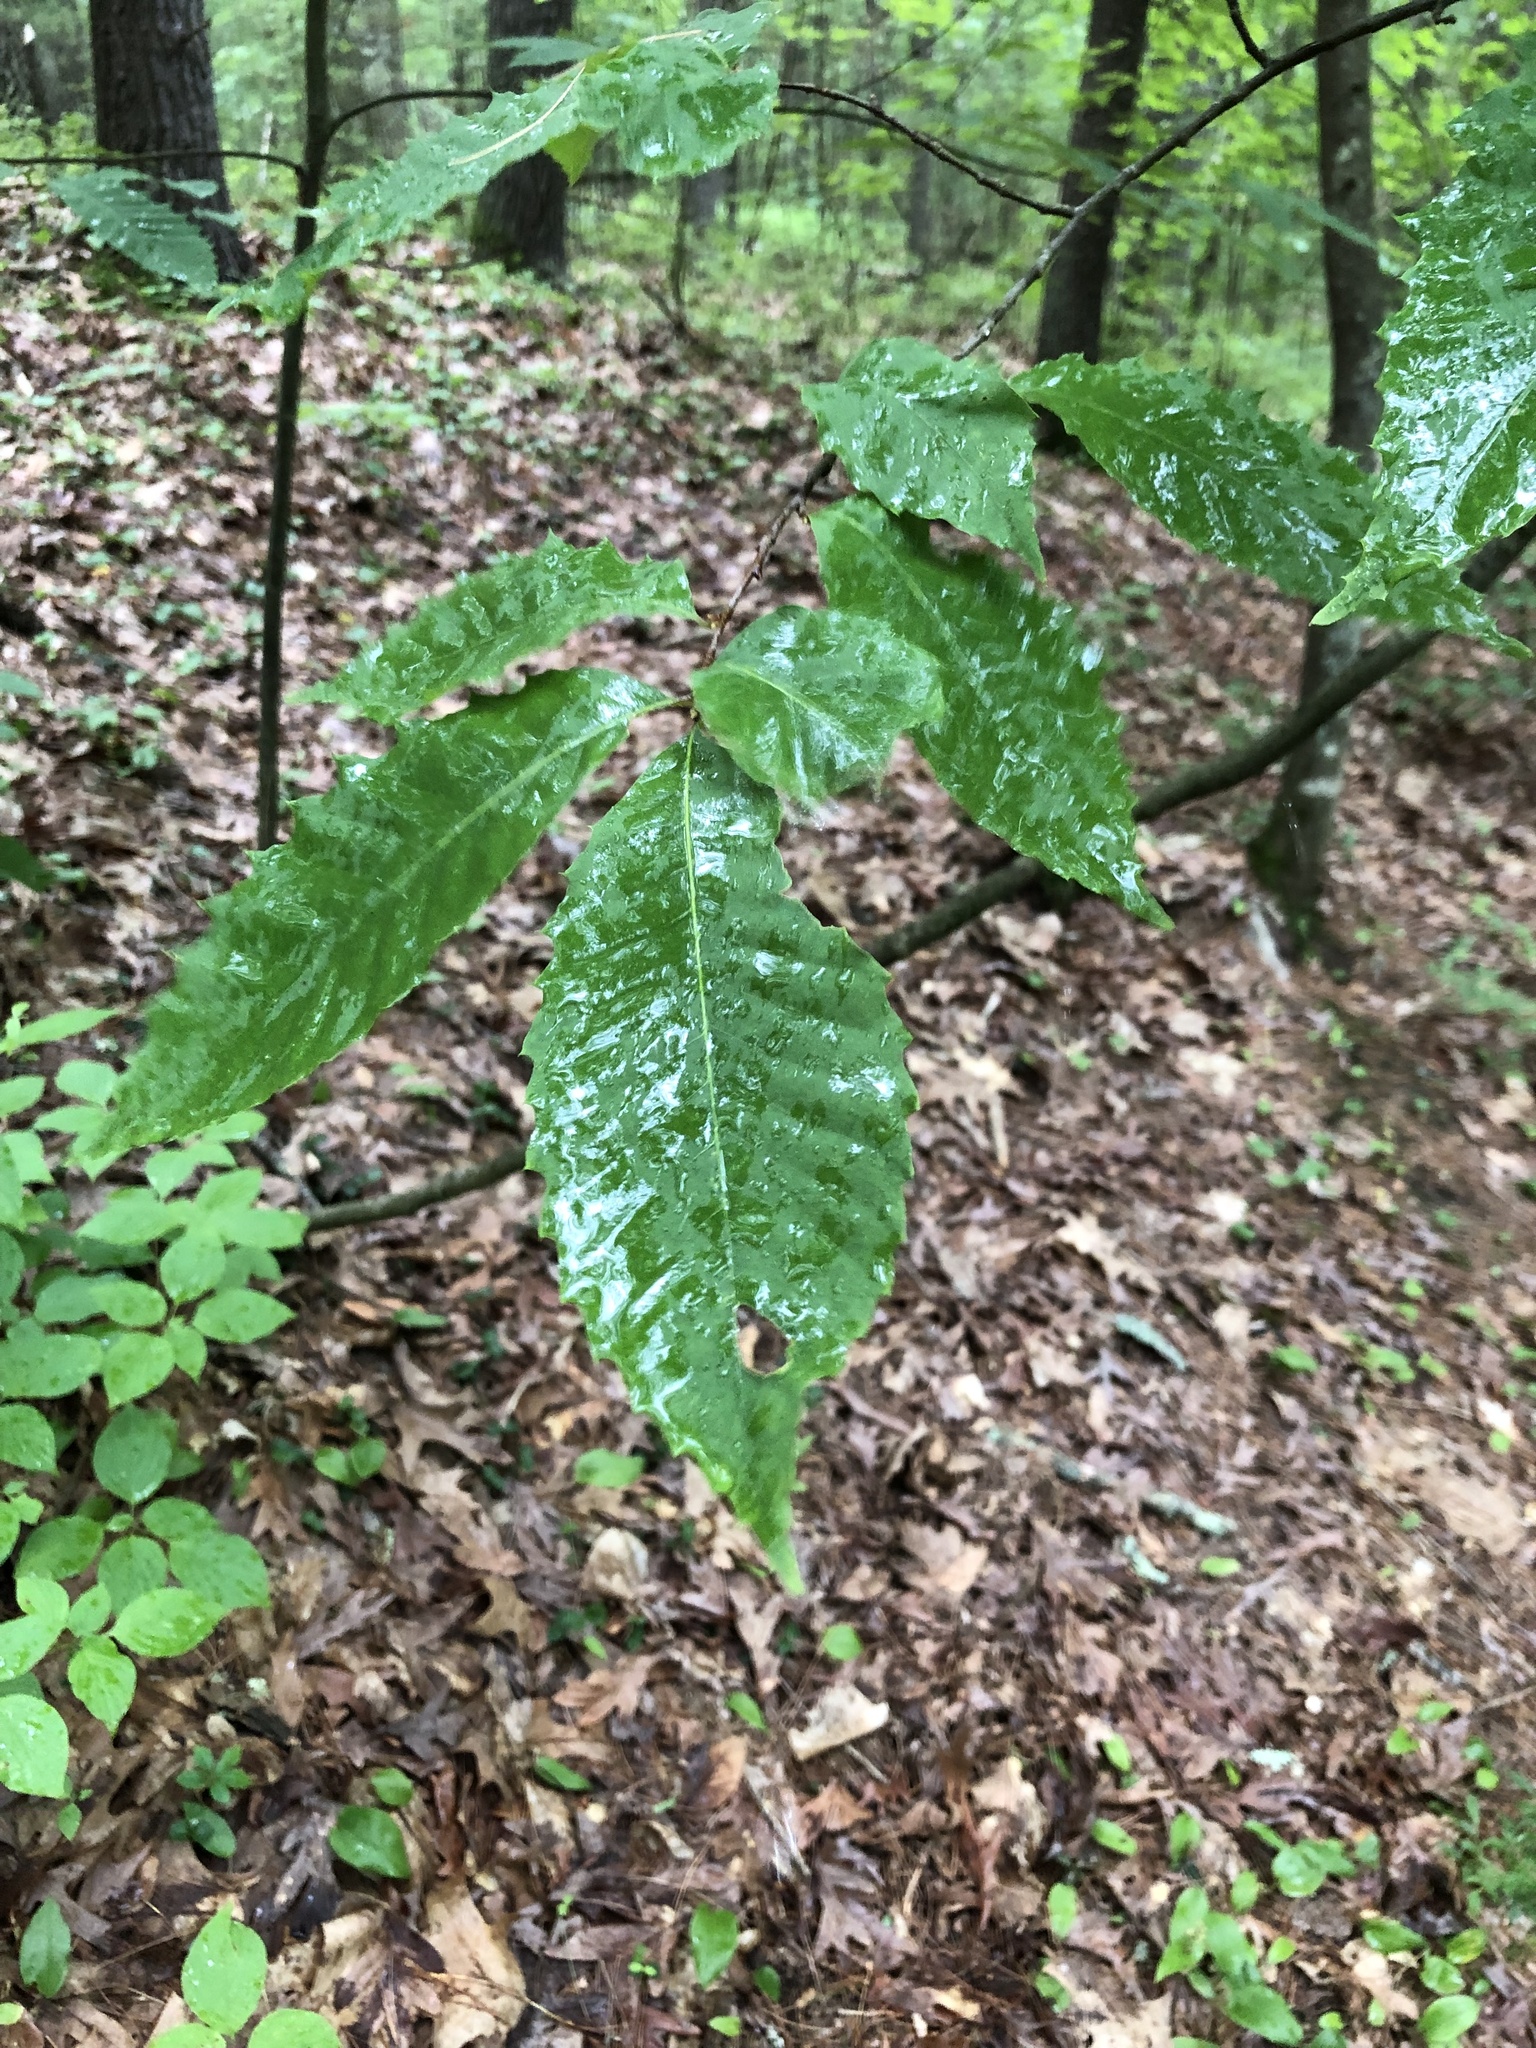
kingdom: Plantae
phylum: Tracheophyta
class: Magnoliopsida
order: Fagales
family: Fagaceae
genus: Castanea
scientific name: Castanea dentata
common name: American chestnut
